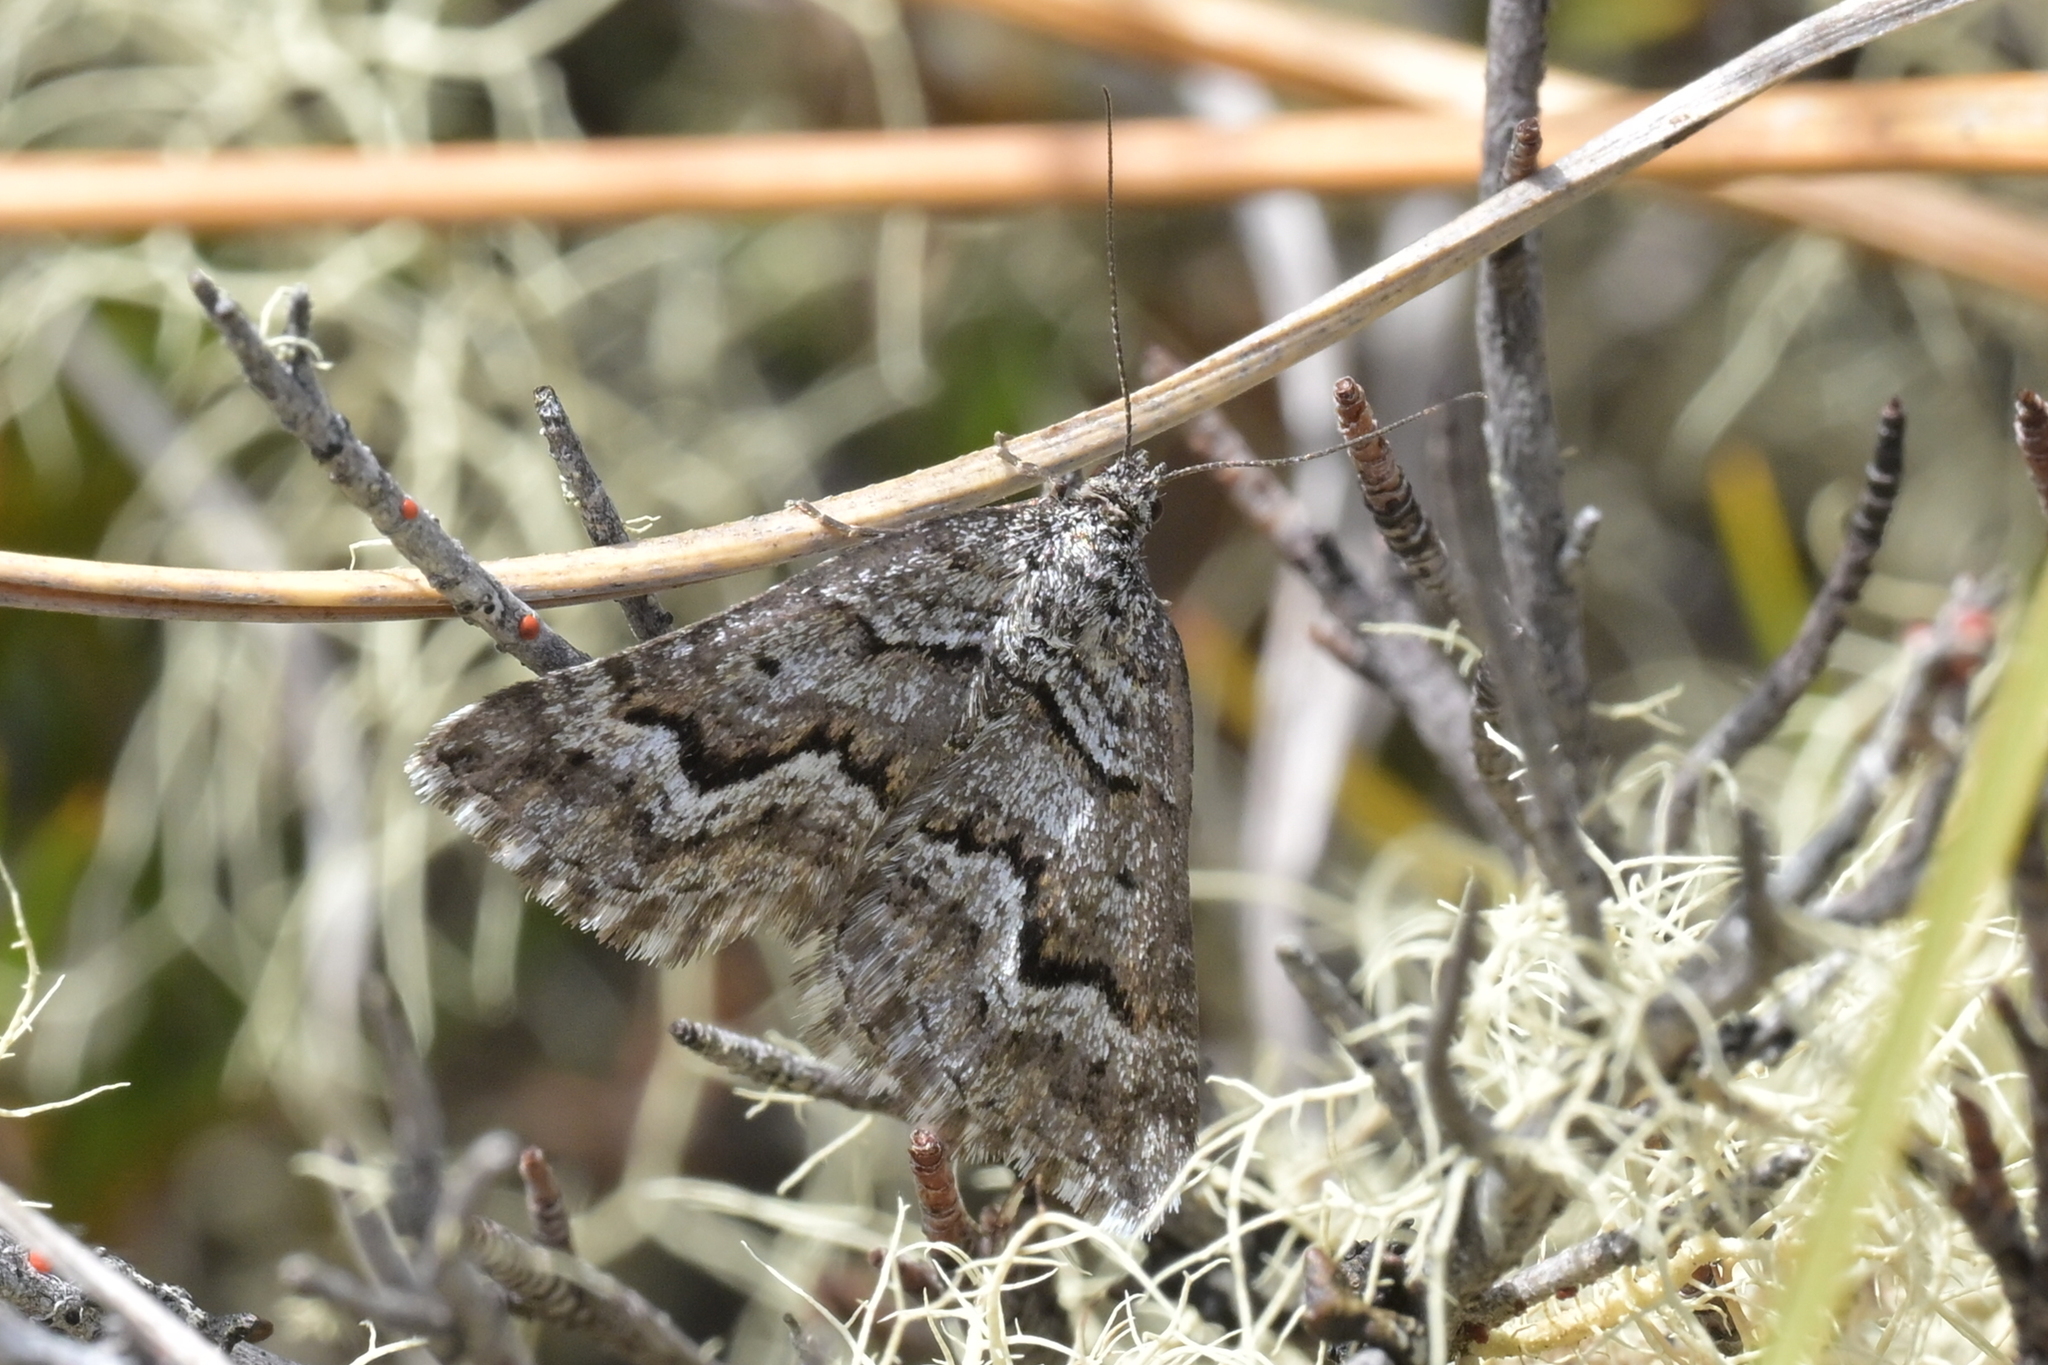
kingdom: Animalia
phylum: Arthropoda
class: Insecta
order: Lepidoptera
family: Geometridae
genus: Aponotoreas
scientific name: Aponotoreas anthracias
